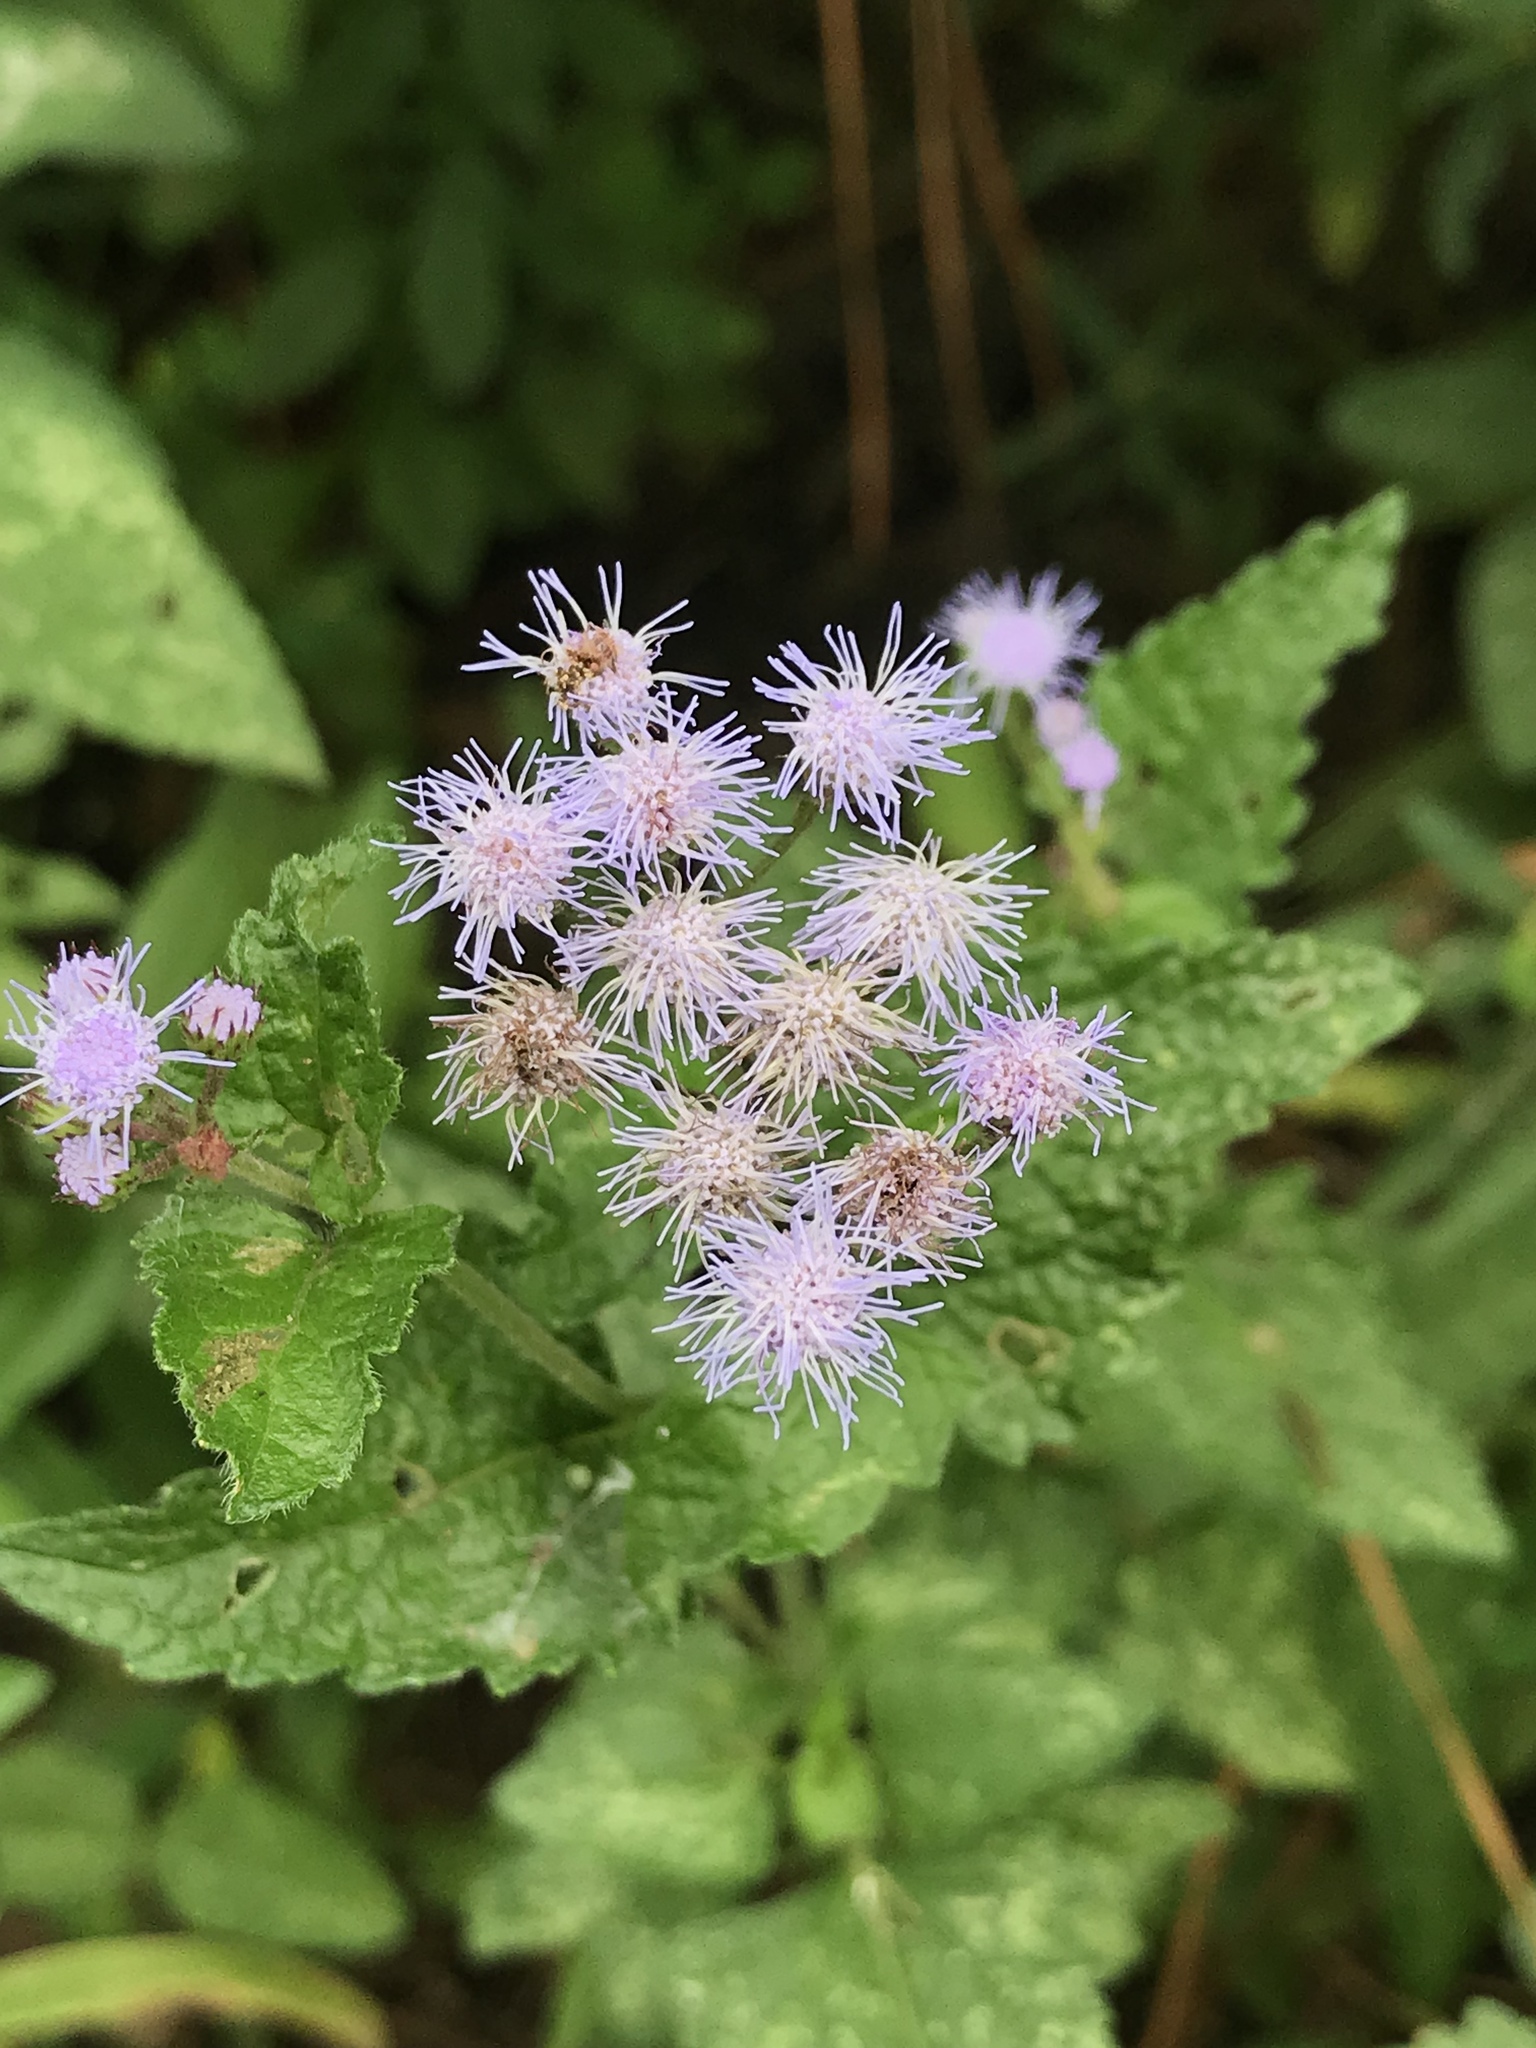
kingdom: Plantae
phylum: Tracheophyta
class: Magnoliopsida
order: Asterales
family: Asteraceae
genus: Conoclinium
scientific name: Conoclinium coelestinum
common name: Blue mistflower
